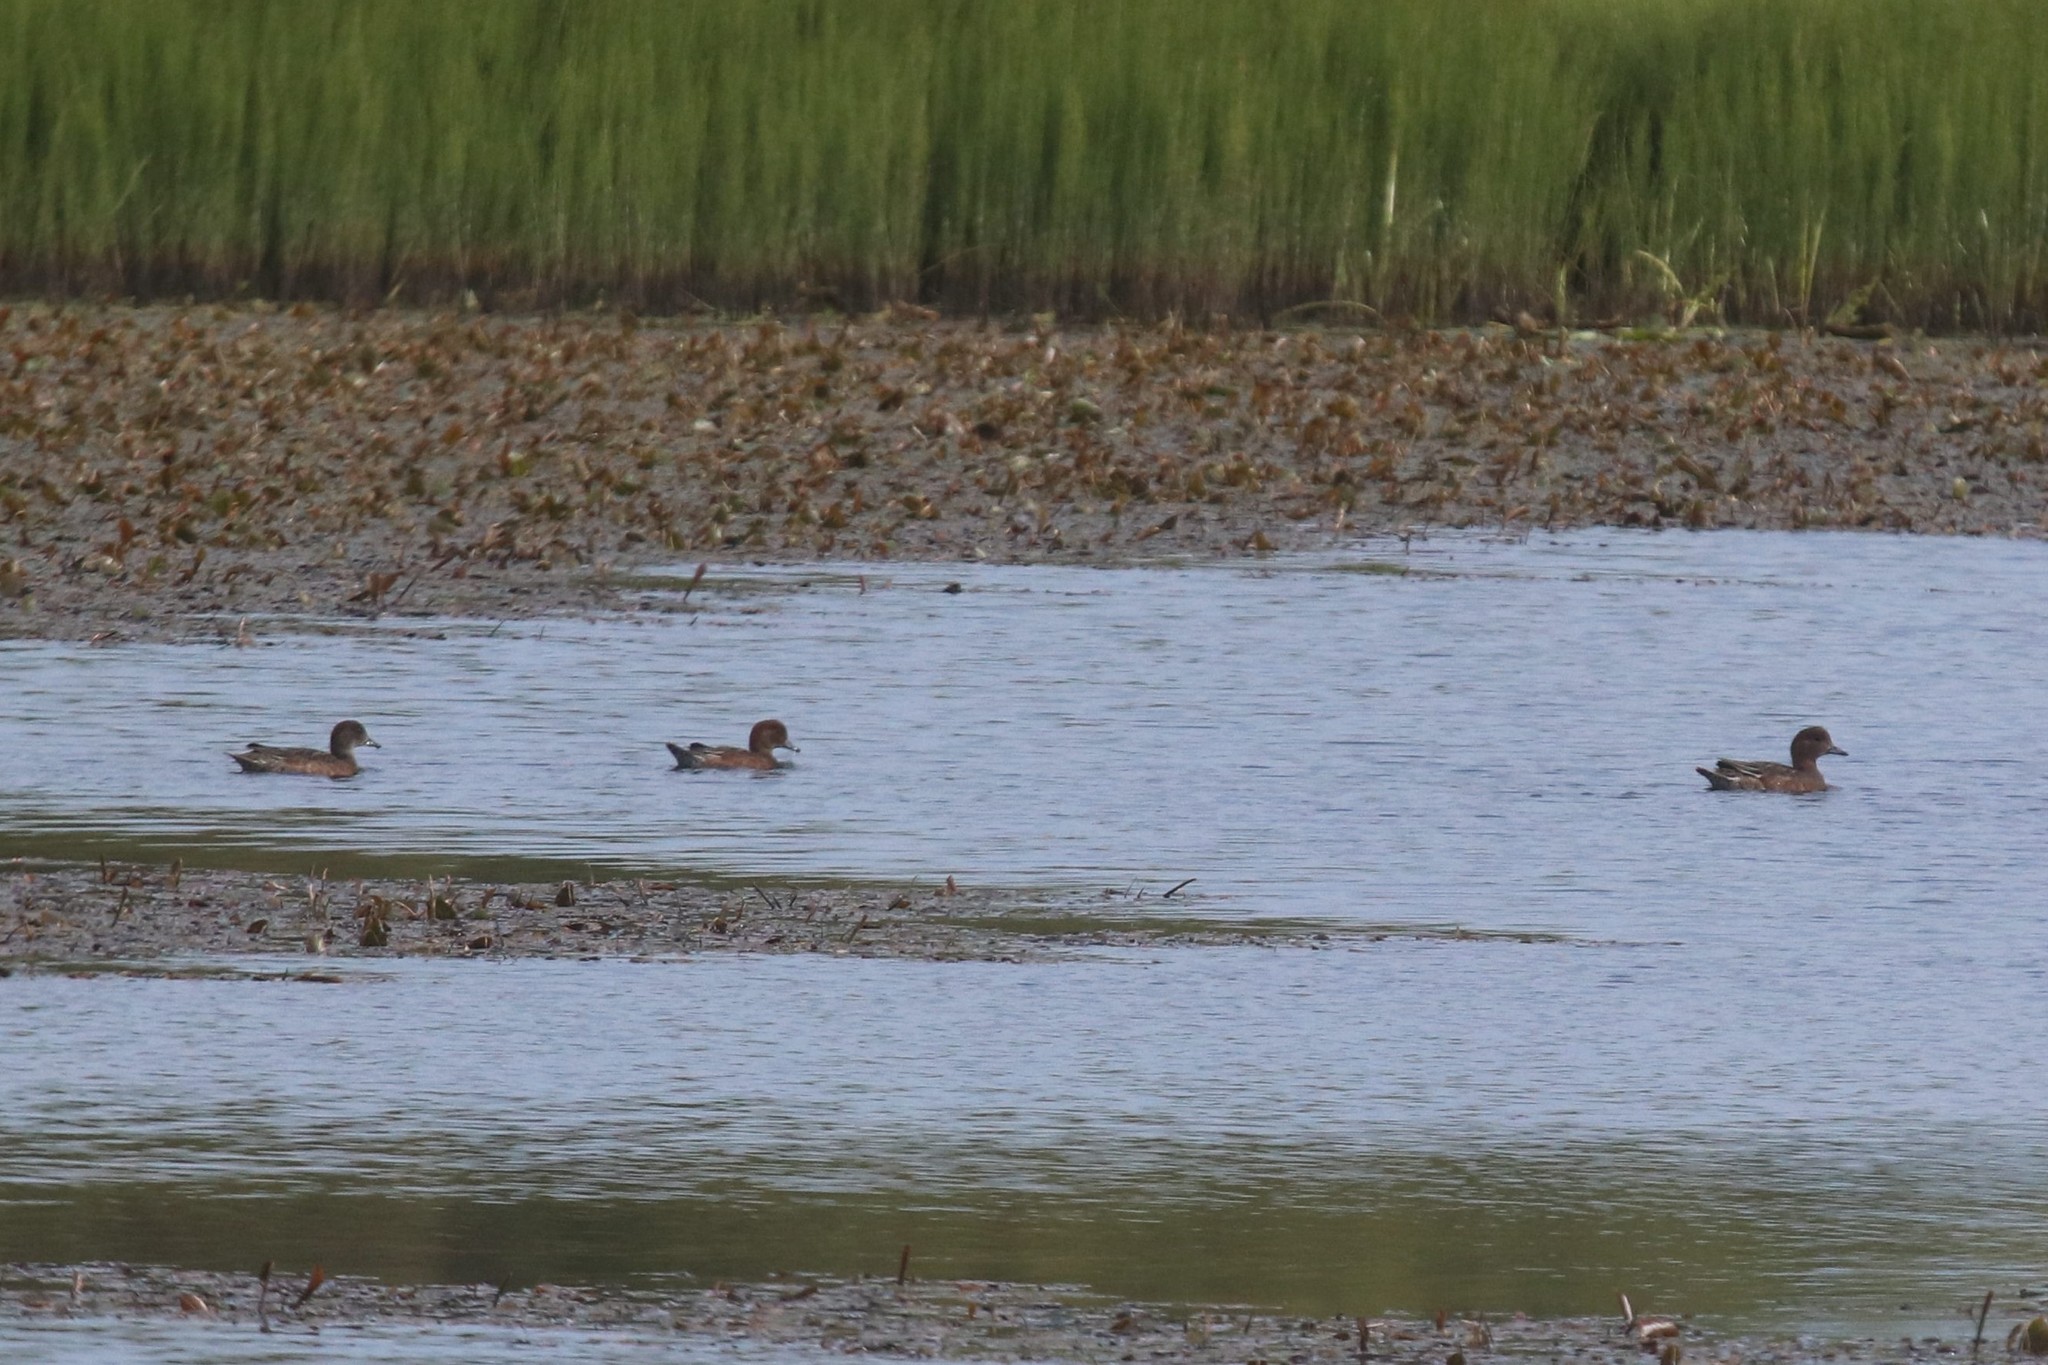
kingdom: Animalia
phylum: Chordata
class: Aves
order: Anseriformes
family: Anatidae
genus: Mareca
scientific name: Mareca penelope
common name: Eurasian wigeon
